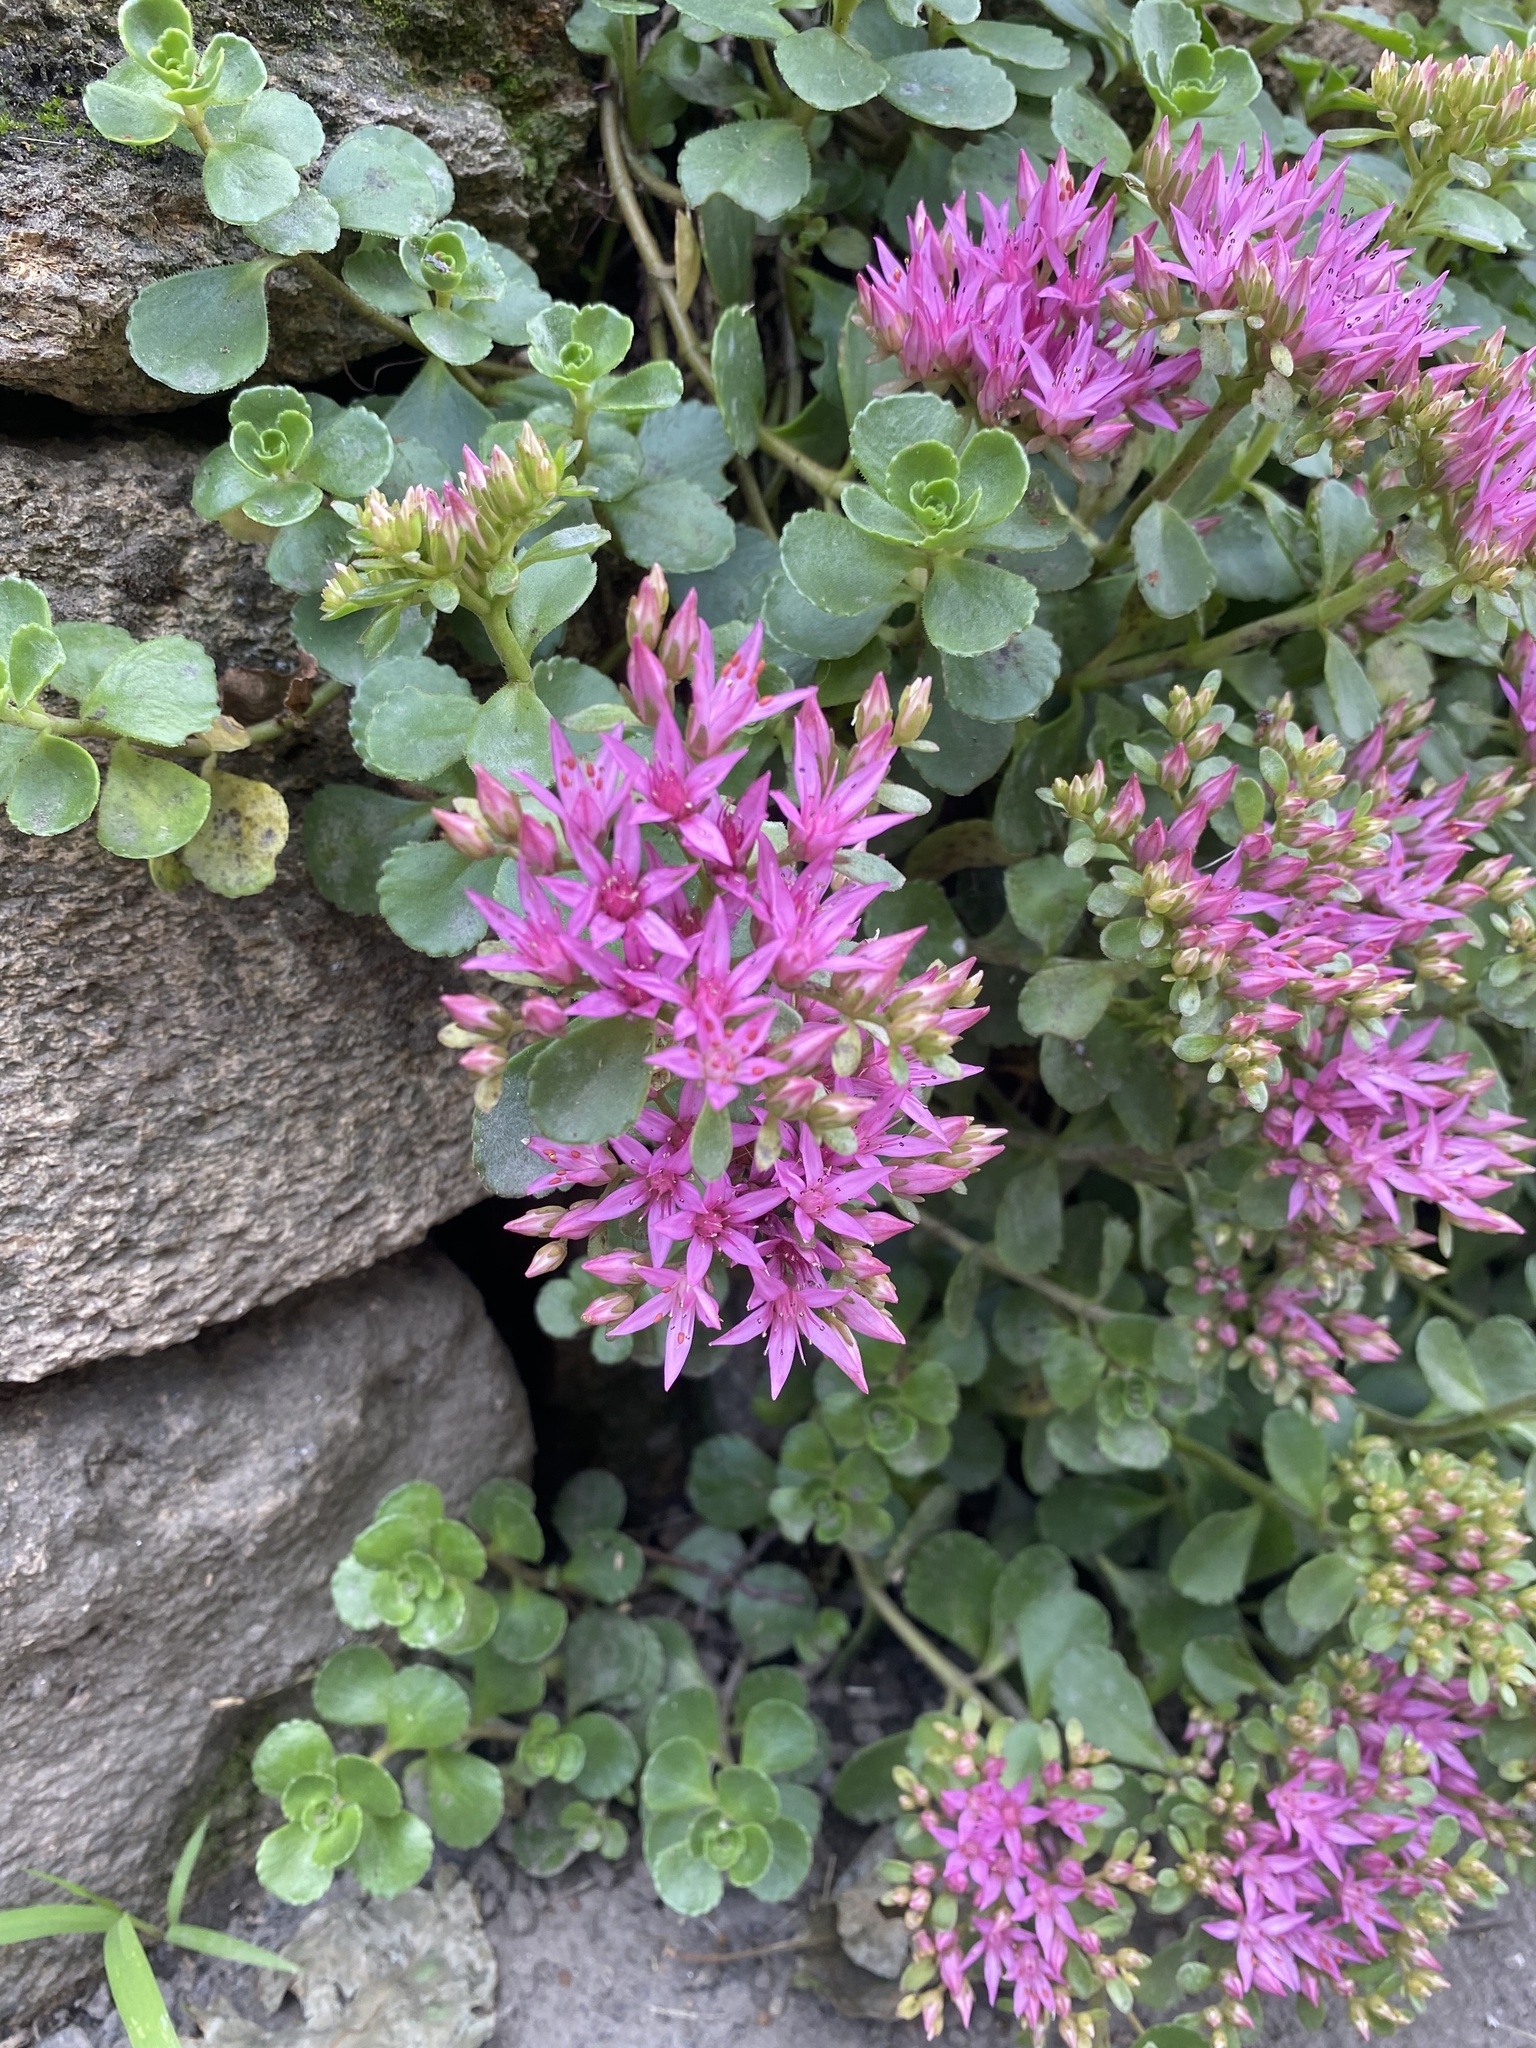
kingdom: Plantae
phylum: Tracheophyta
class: Magnoliopsida
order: Saxifragales
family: Crassulaceae
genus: Phedimus
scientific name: Phedimus spurius
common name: Caucasian stonecrop
